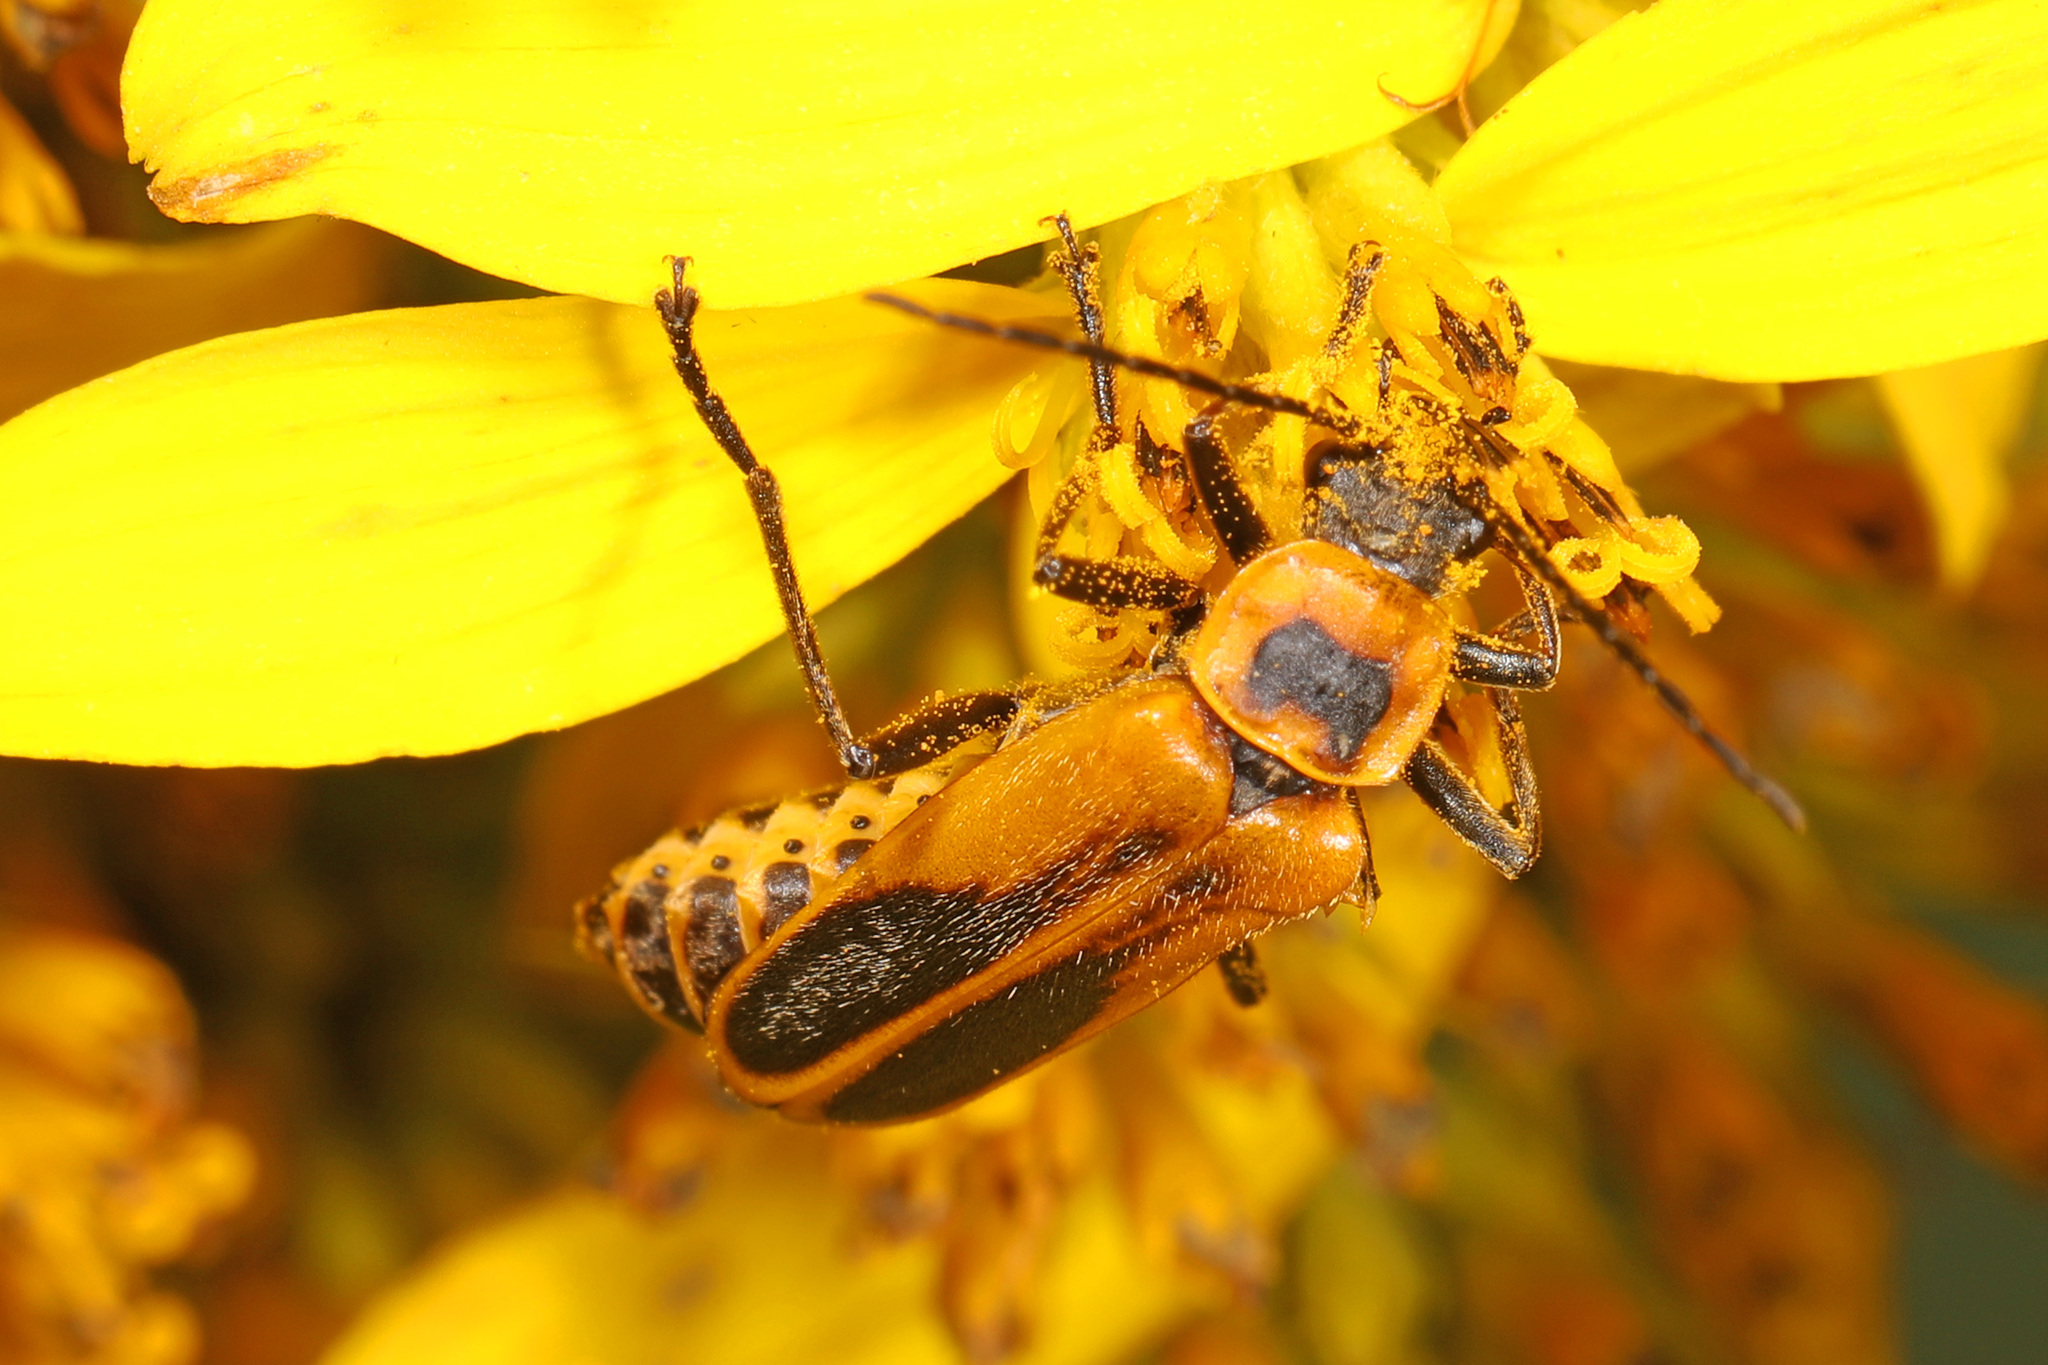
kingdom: Animalia
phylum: Arthropoda
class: Insecta
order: Coleoptera
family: Cantharidae
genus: Chauliognathus
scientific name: Chauliognathus pensylvanicus
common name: Goldenrod soldier beetle
